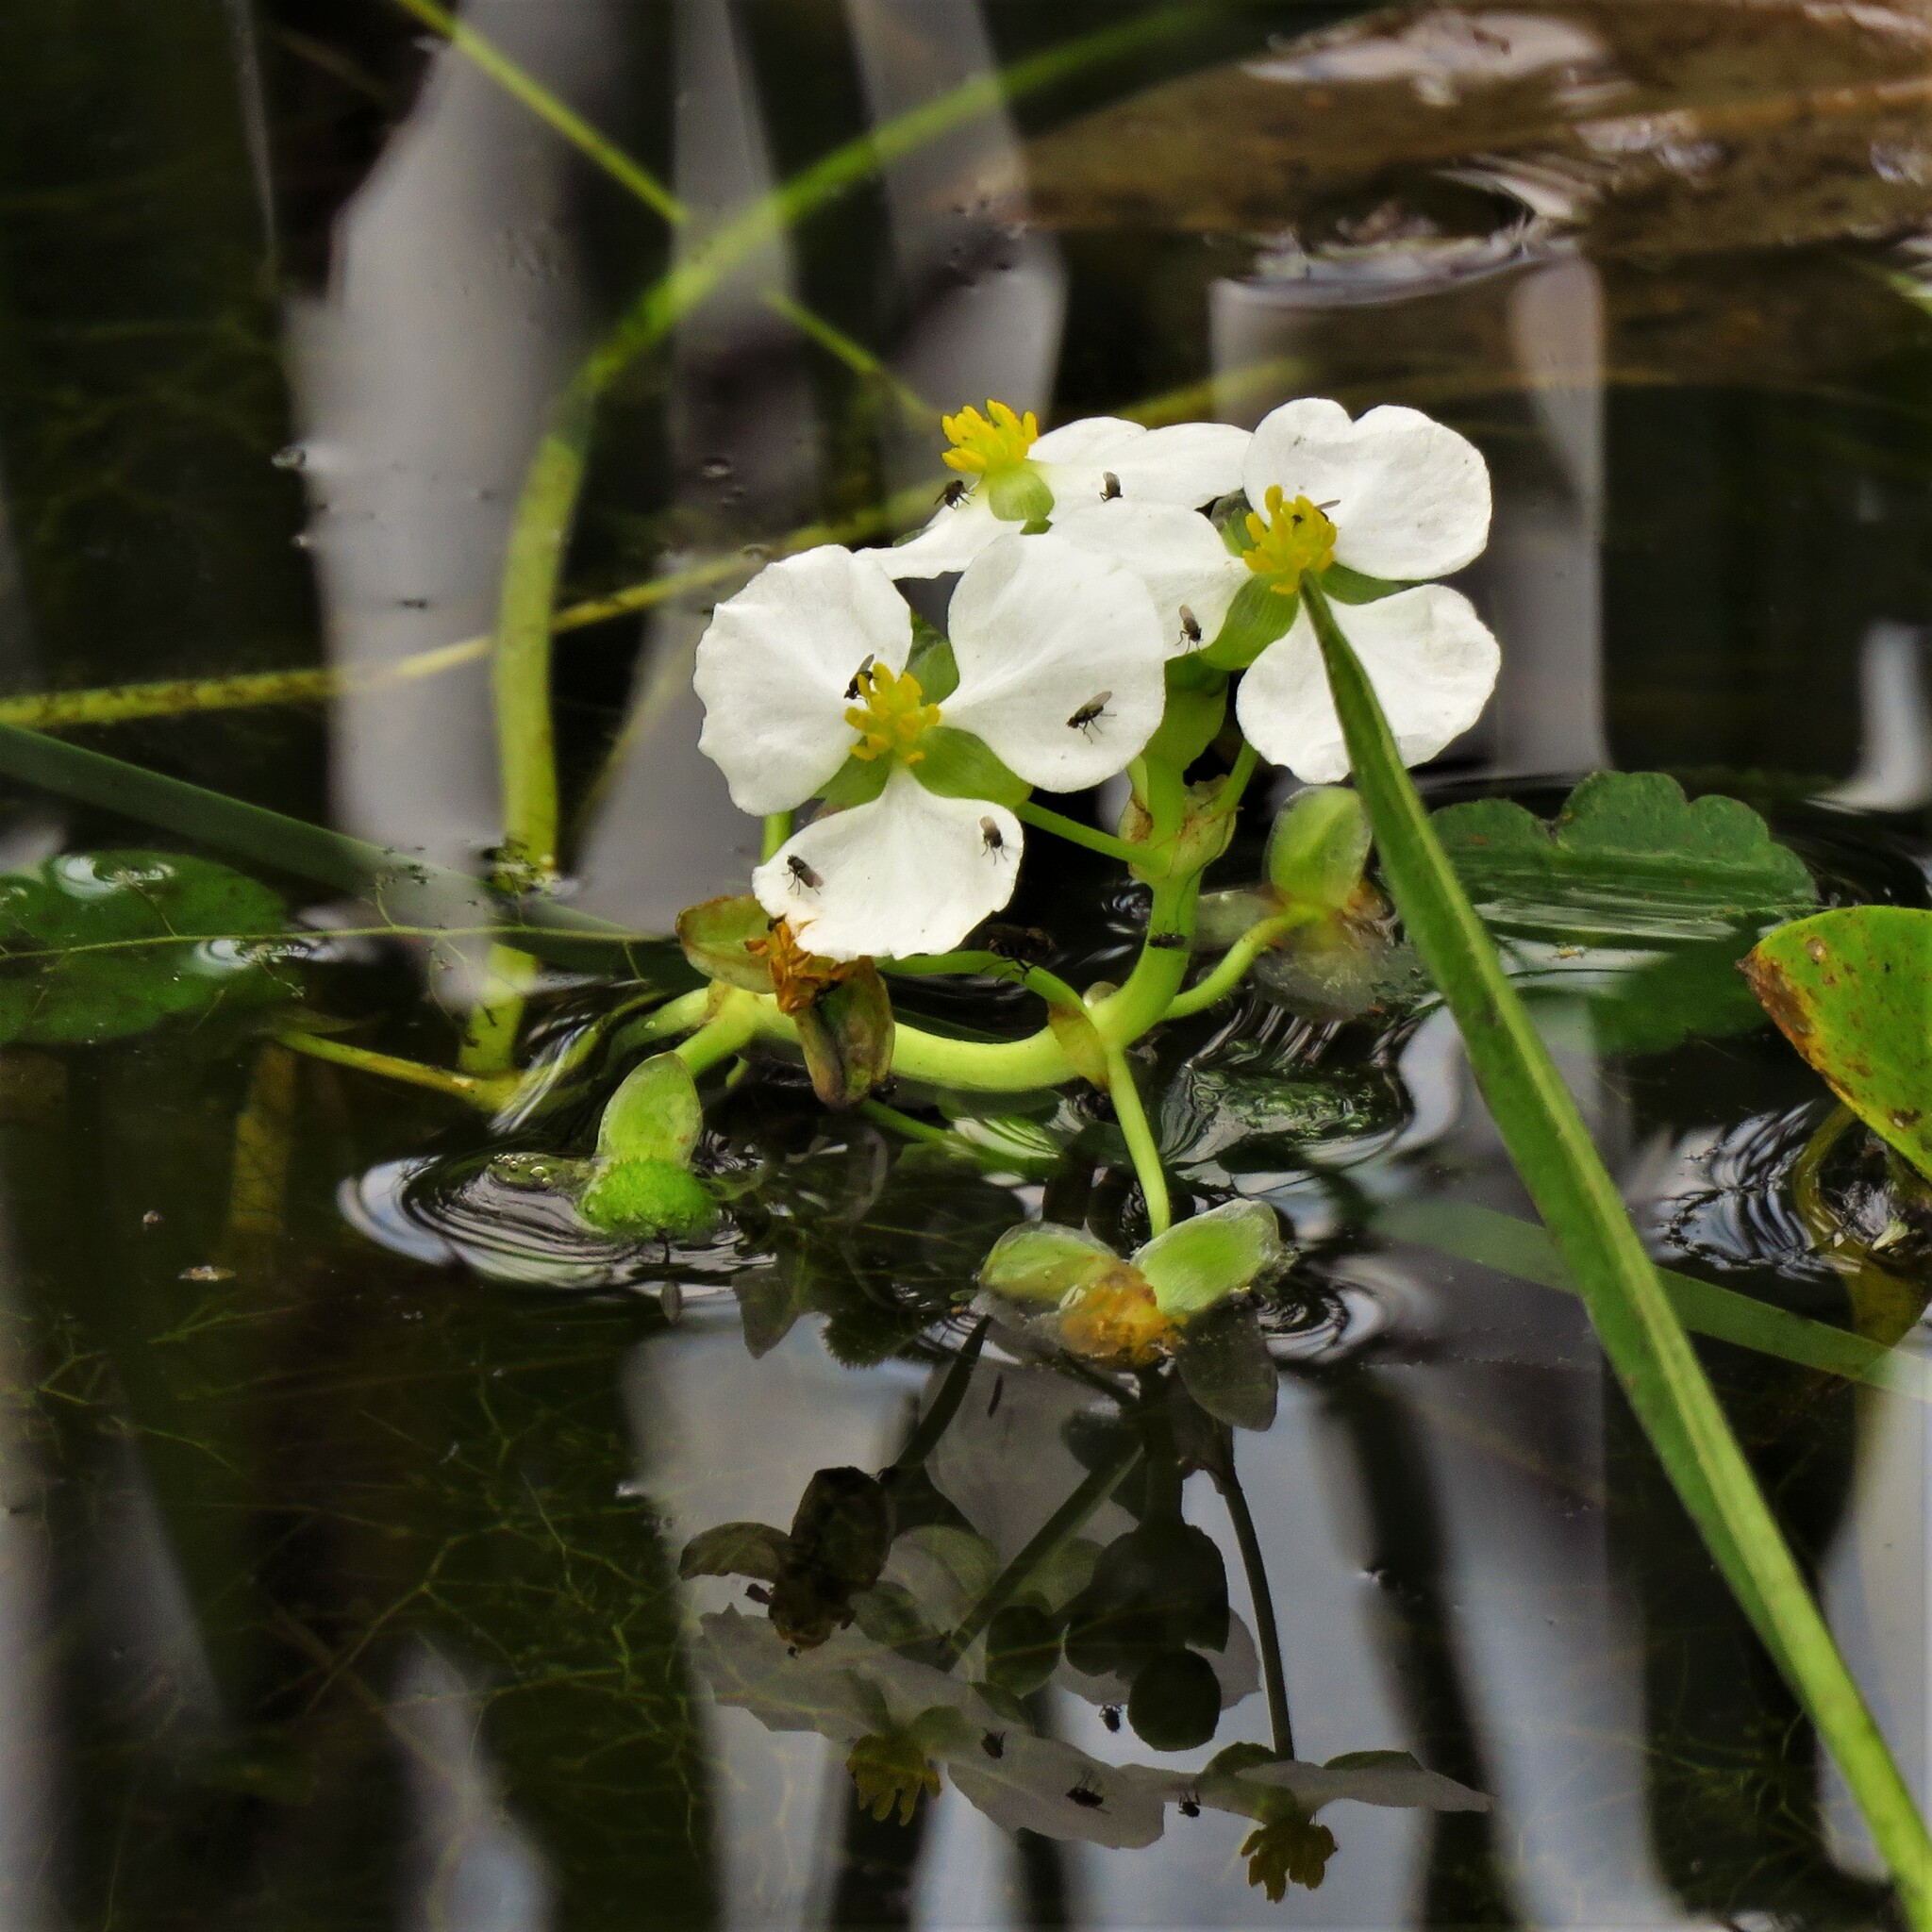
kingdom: Plantae
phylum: Tracheophyta
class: Liliopsida
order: Alismatales
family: Alismataceae
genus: Sagittaria
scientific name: Sagittaria platyphylla
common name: Broad-leaf arrowhead
